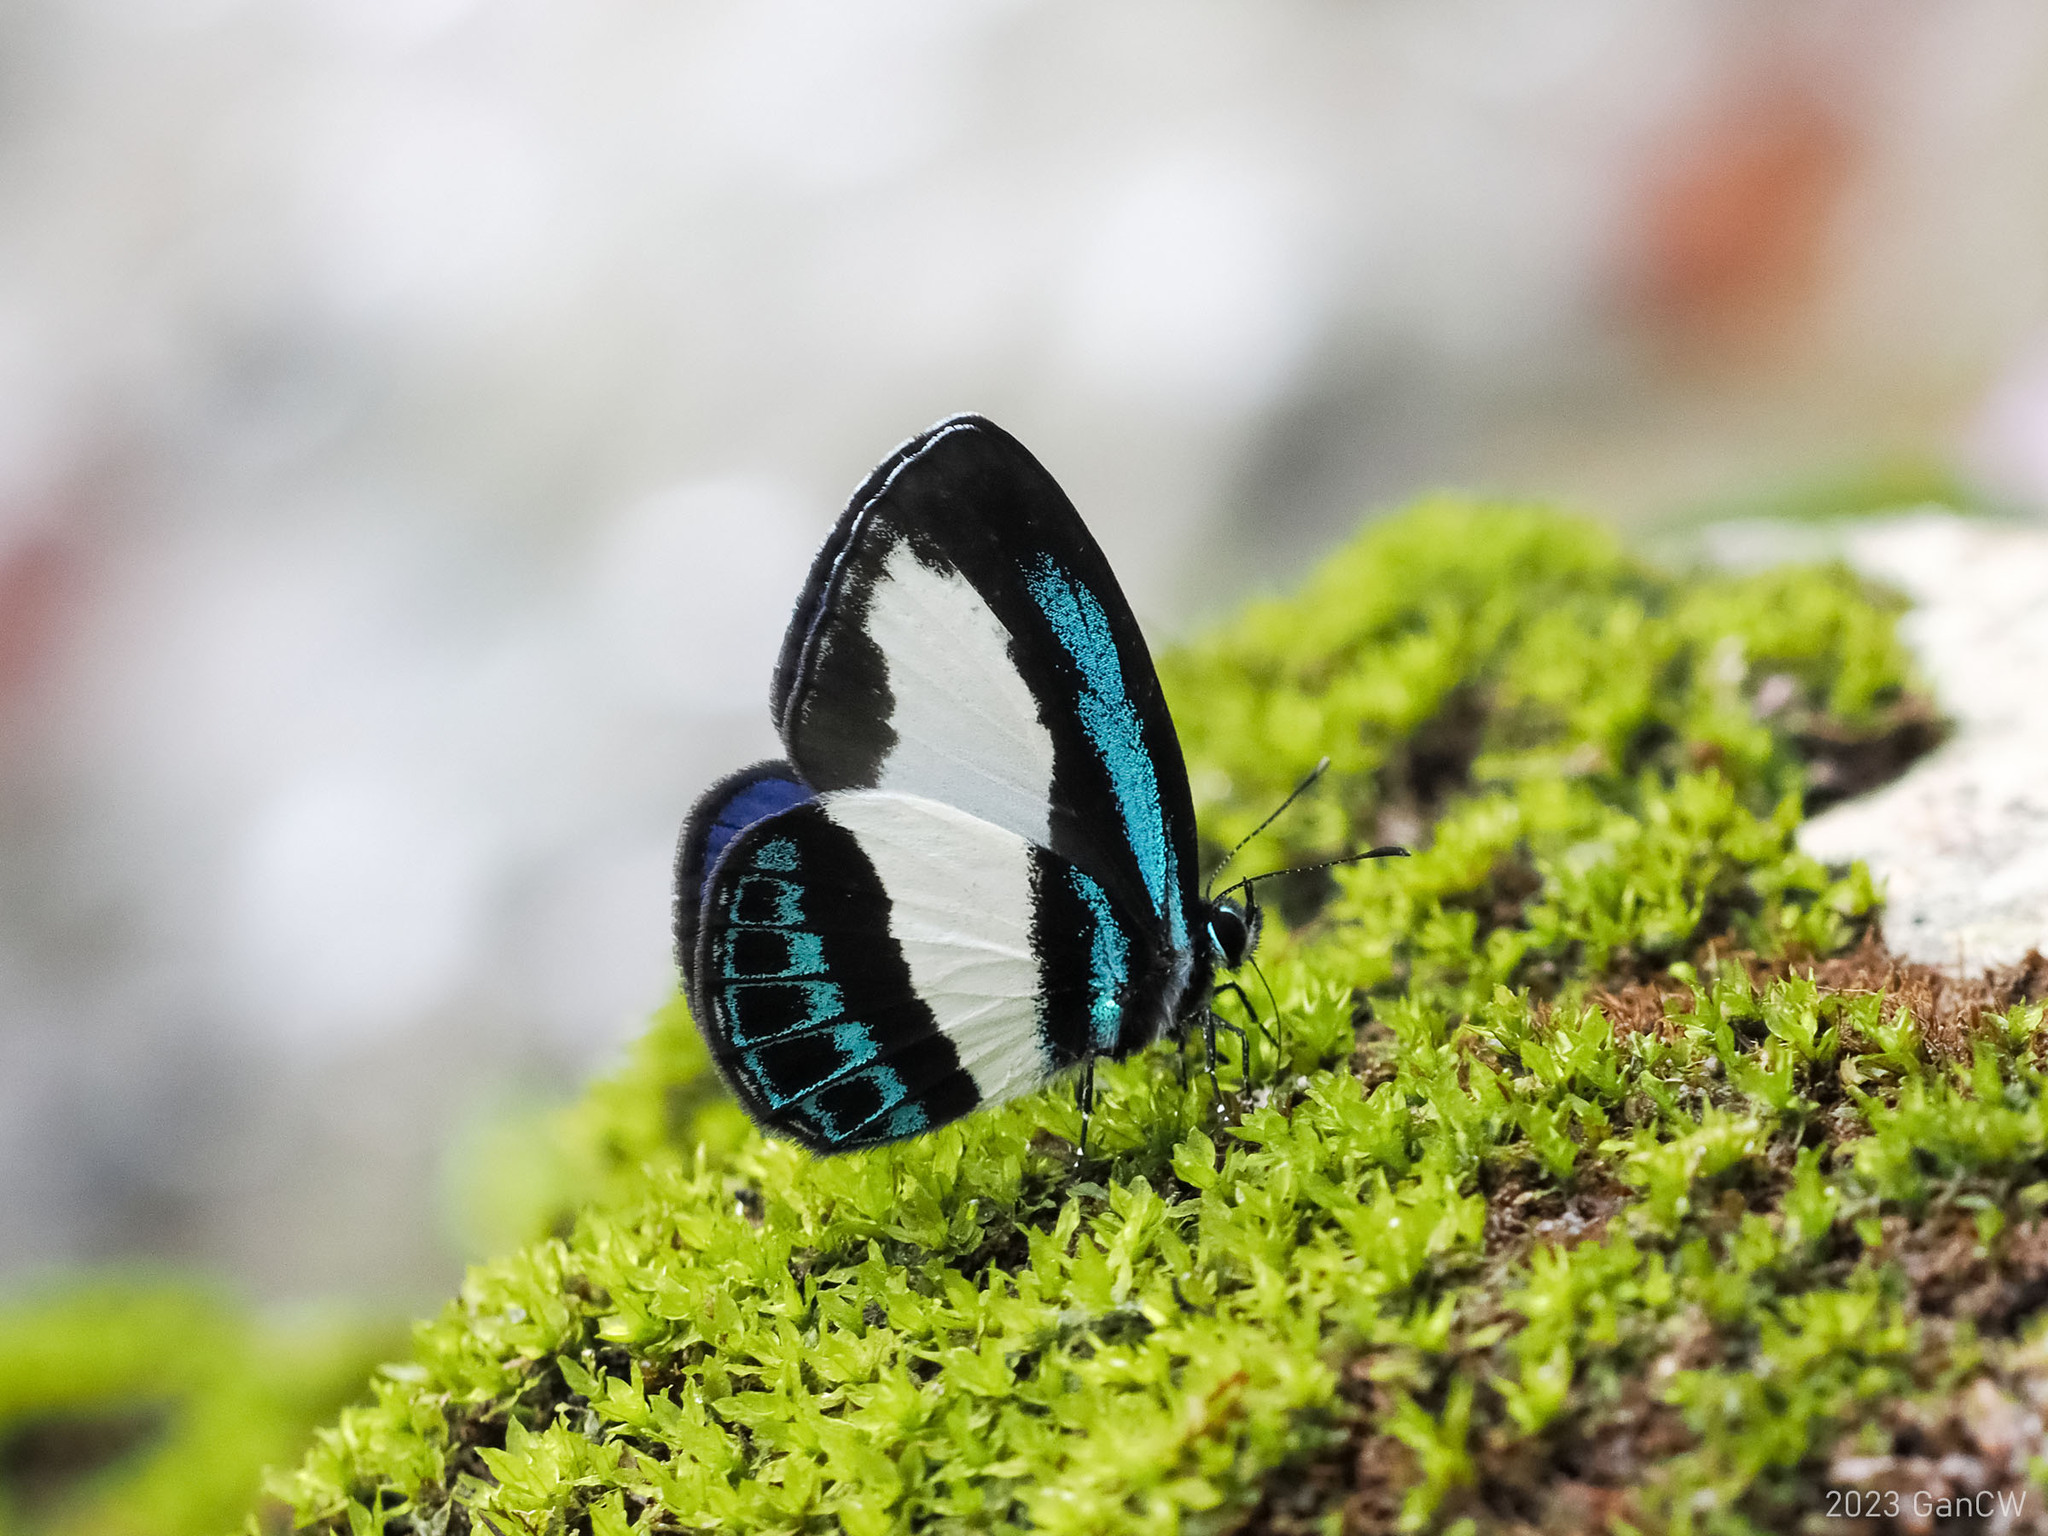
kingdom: Animalia
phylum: Arthropoda
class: Insecta
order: Lepidoptera
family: Lycaenidae
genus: Psychonotis
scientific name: Psychonotis caelius
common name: Small green banded blue
